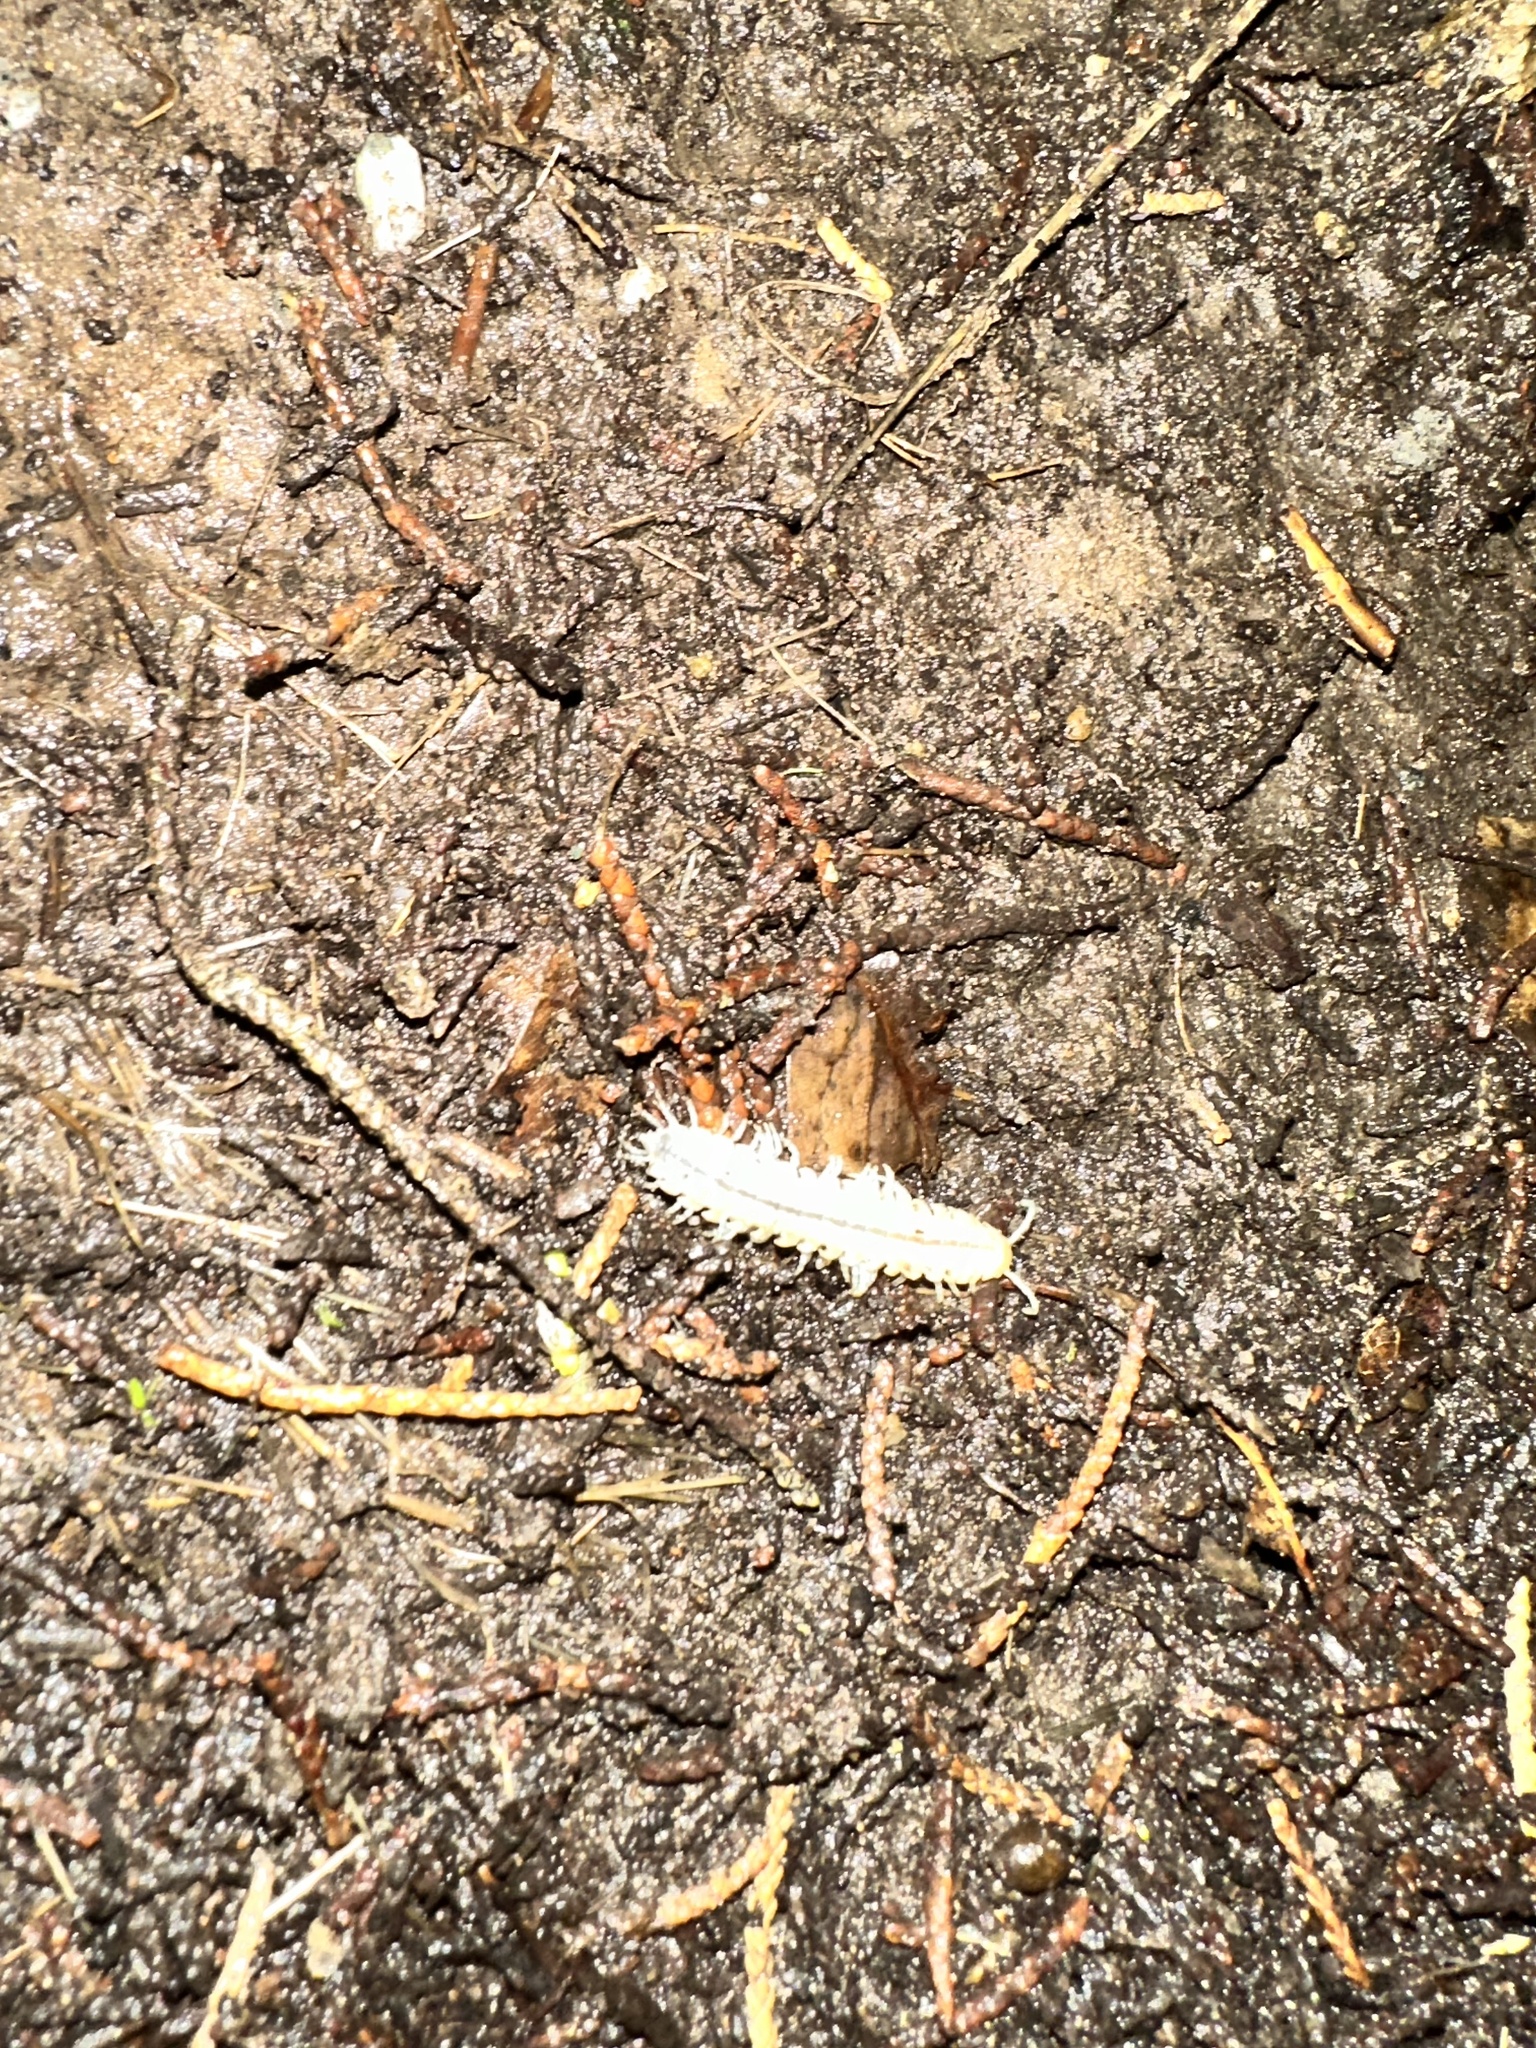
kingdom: Animalia
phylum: Arthropoda
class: Diplopoda
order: Polydesmida
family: Xystodesmidae
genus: Xystocheir
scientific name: Xystocheir dissecta
